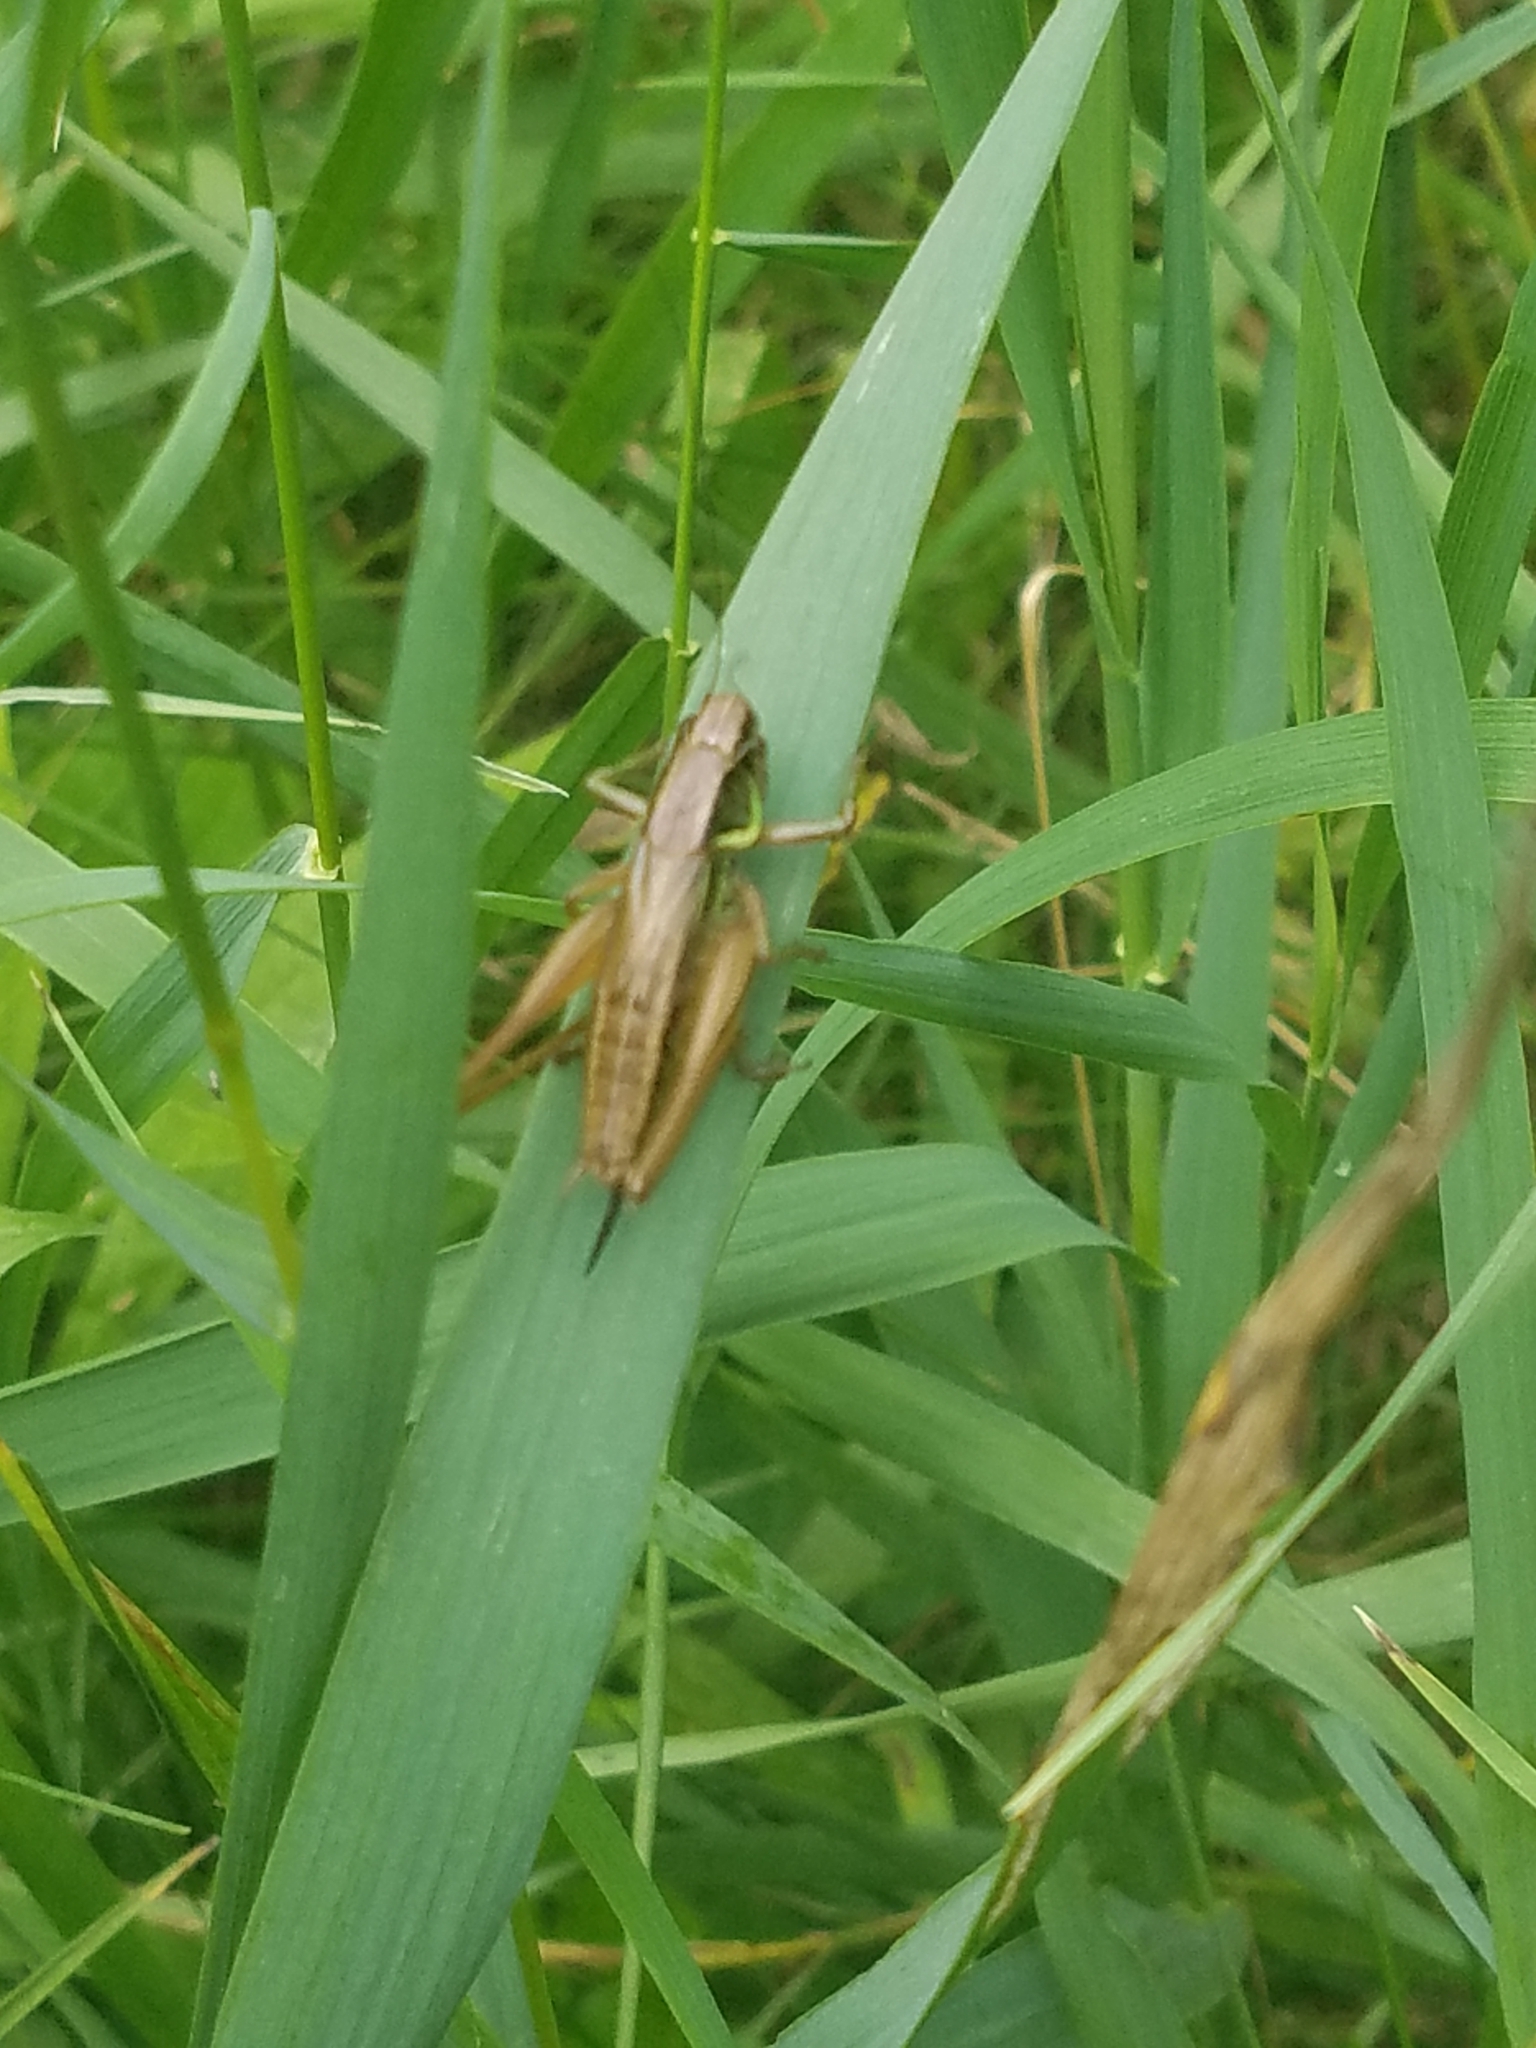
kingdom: Animalia
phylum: Arthropoda
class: Insecta
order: Orthoptera
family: Tettigoniidae
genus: Roeseliana
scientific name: Roeseliana roeselii
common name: Roesel's bush cricket
